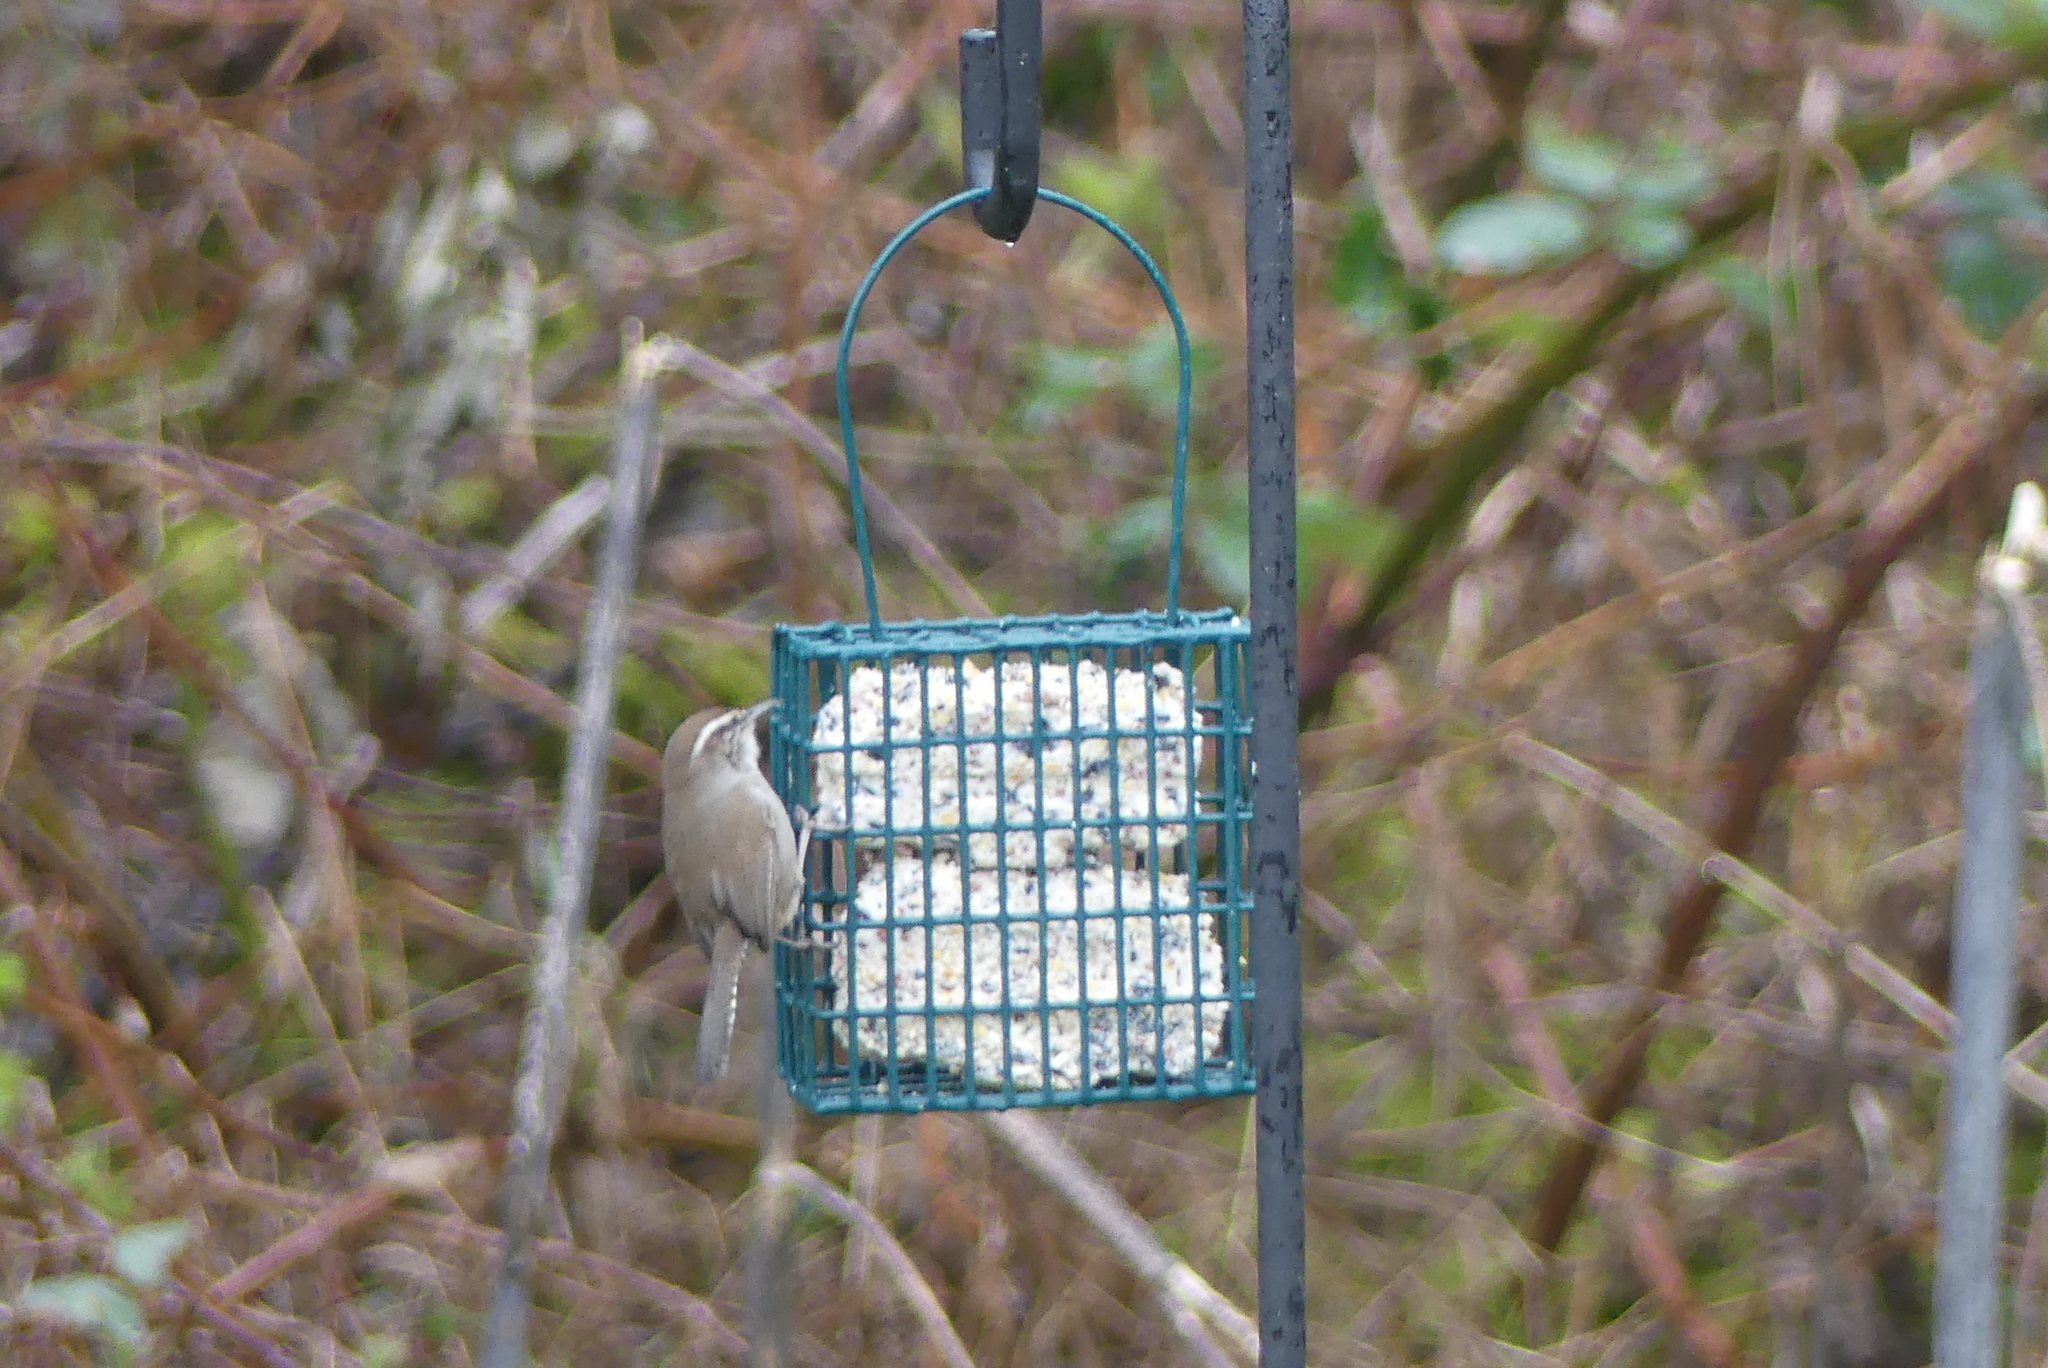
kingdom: Animalia
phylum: Chordata
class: Aves
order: Passeriformes
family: Troglodytidae
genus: Thryomanes
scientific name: Thryomanes bewickii
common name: Bewick's wren
